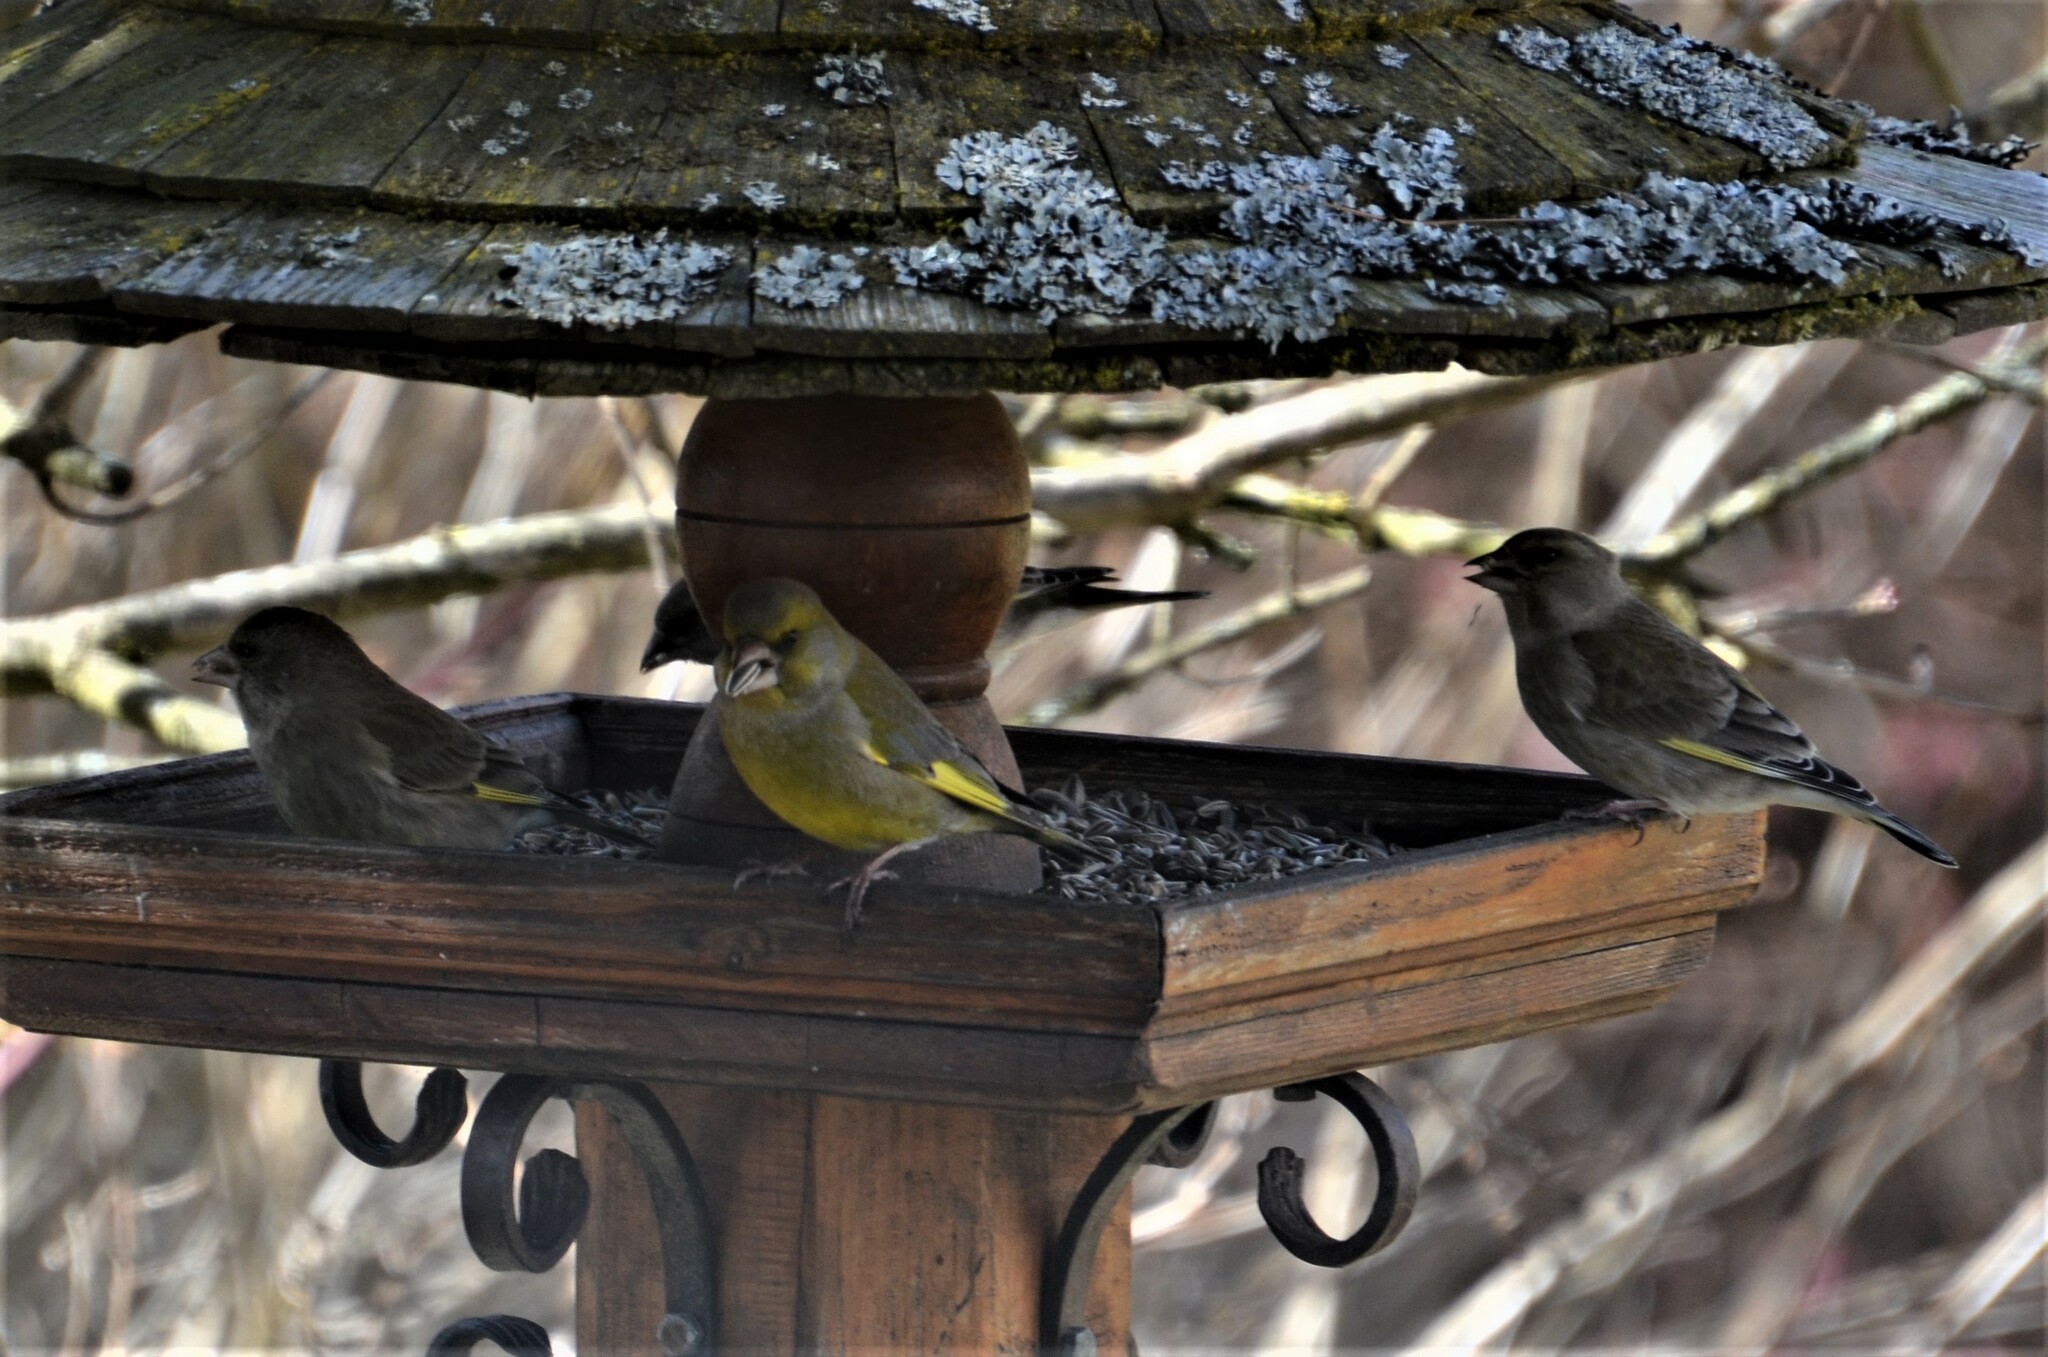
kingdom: Plantae
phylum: Tracheophyta
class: Liliopsida
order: Poales
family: Poaceae
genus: Chloris
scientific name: Chloris chloris
